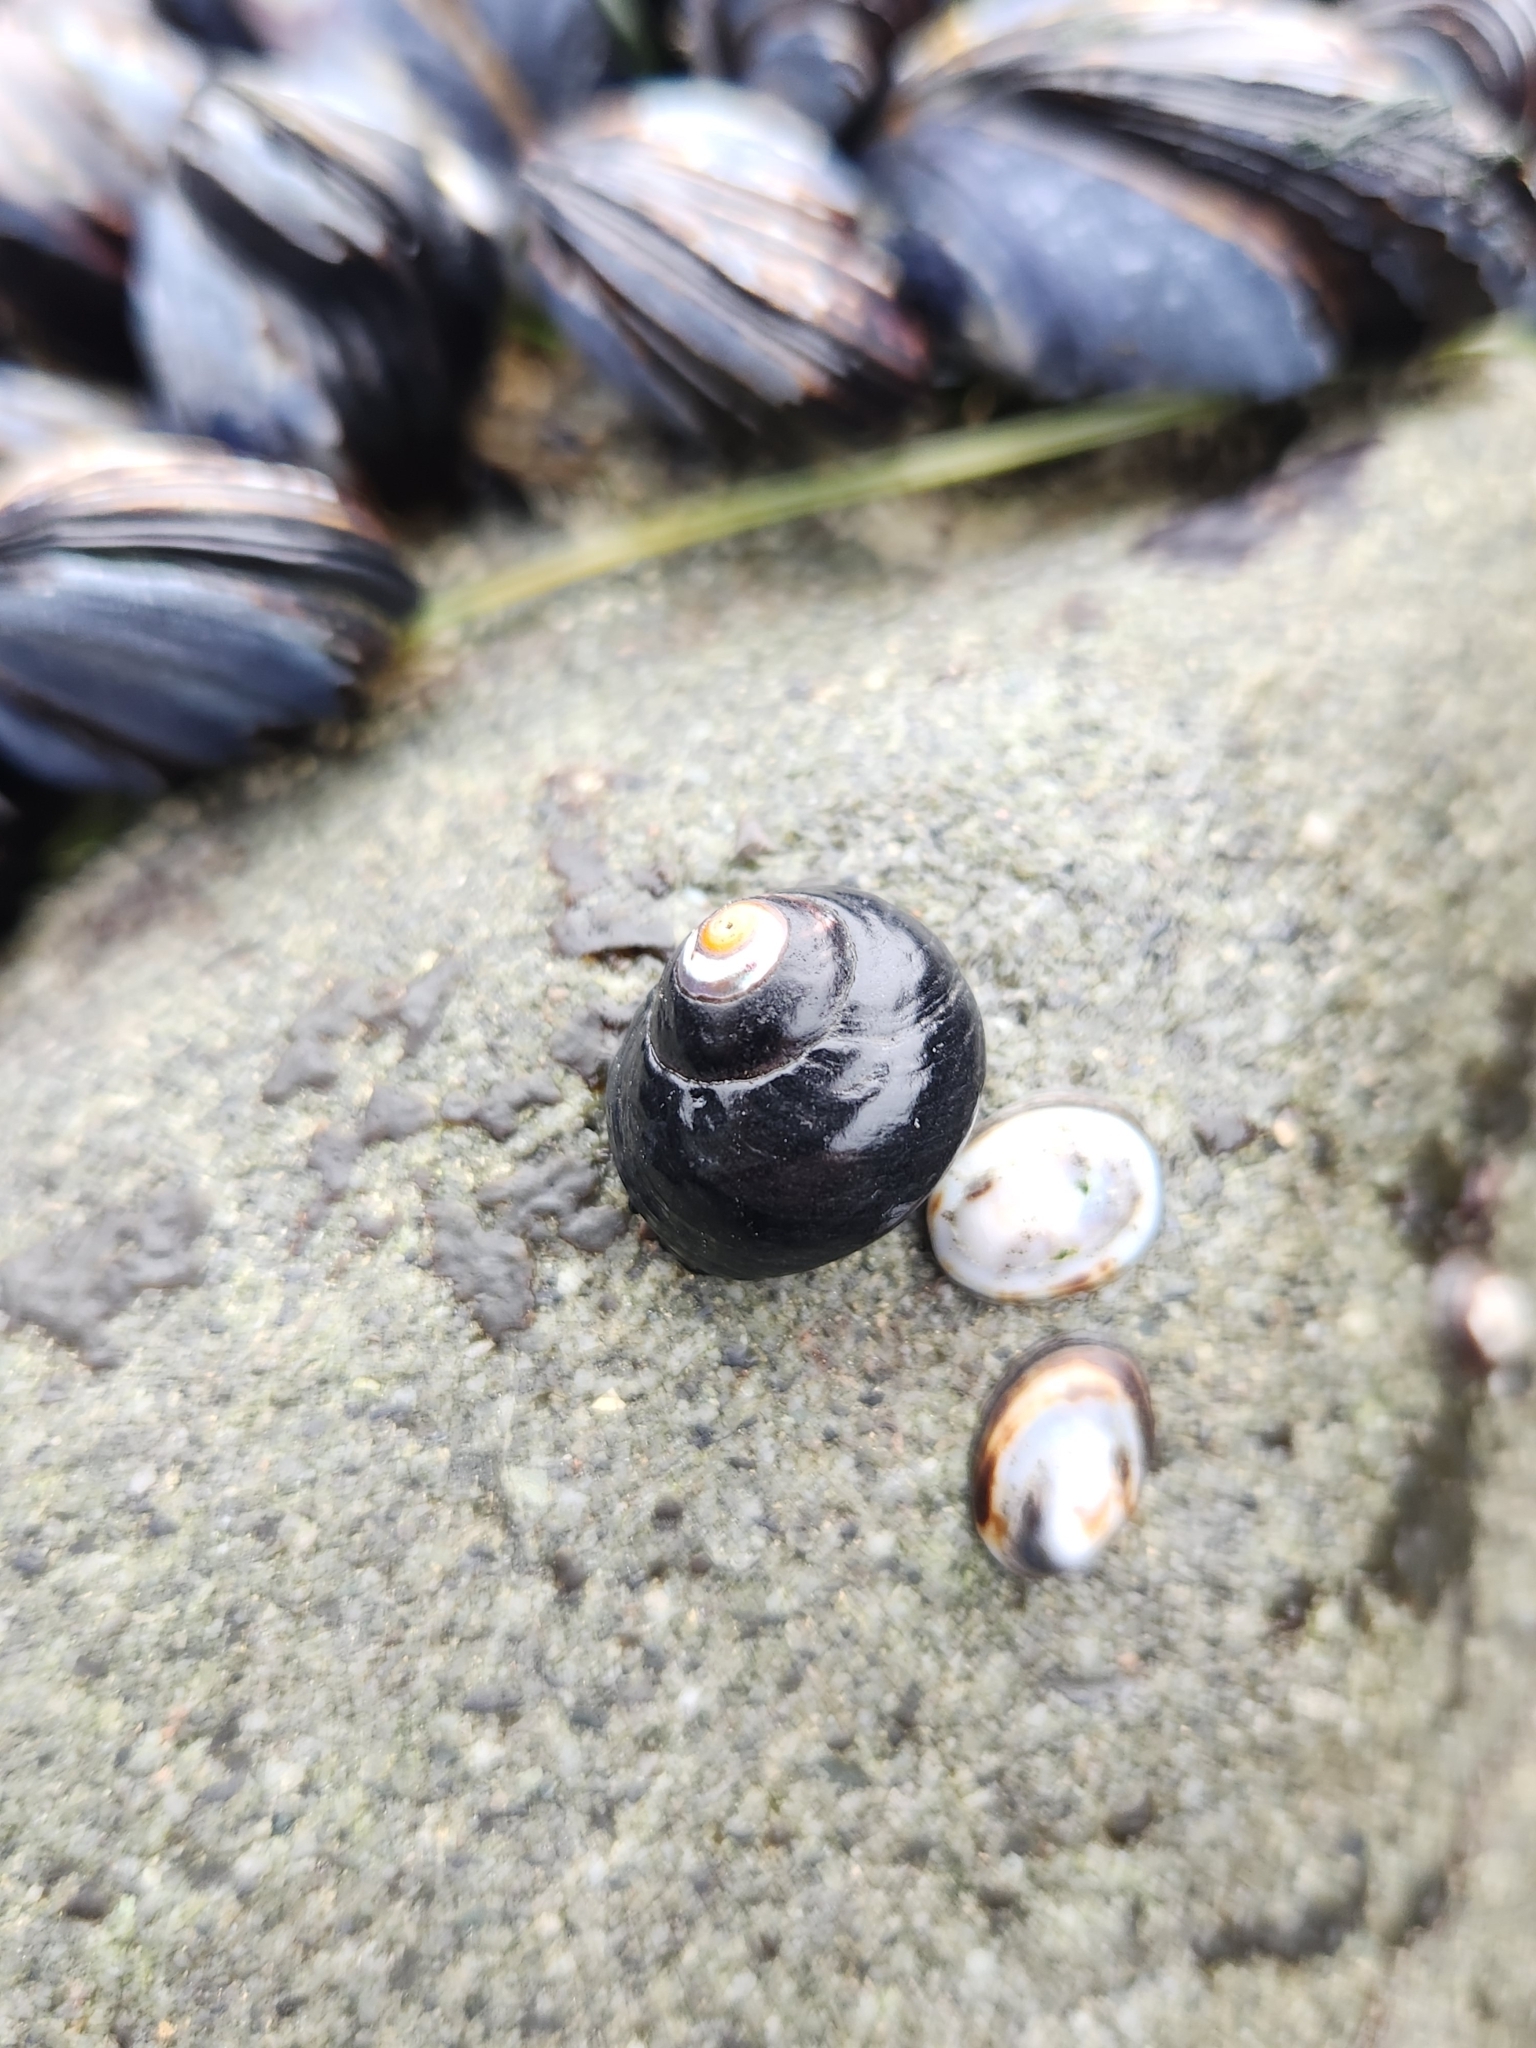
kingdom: Animalia
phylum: Cnidaria
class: Anthozoa
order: Actiniaria
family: Actiniidae
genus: Anthopleura
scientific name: Anthopleura xanthogrammica
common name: Giant green anemone
